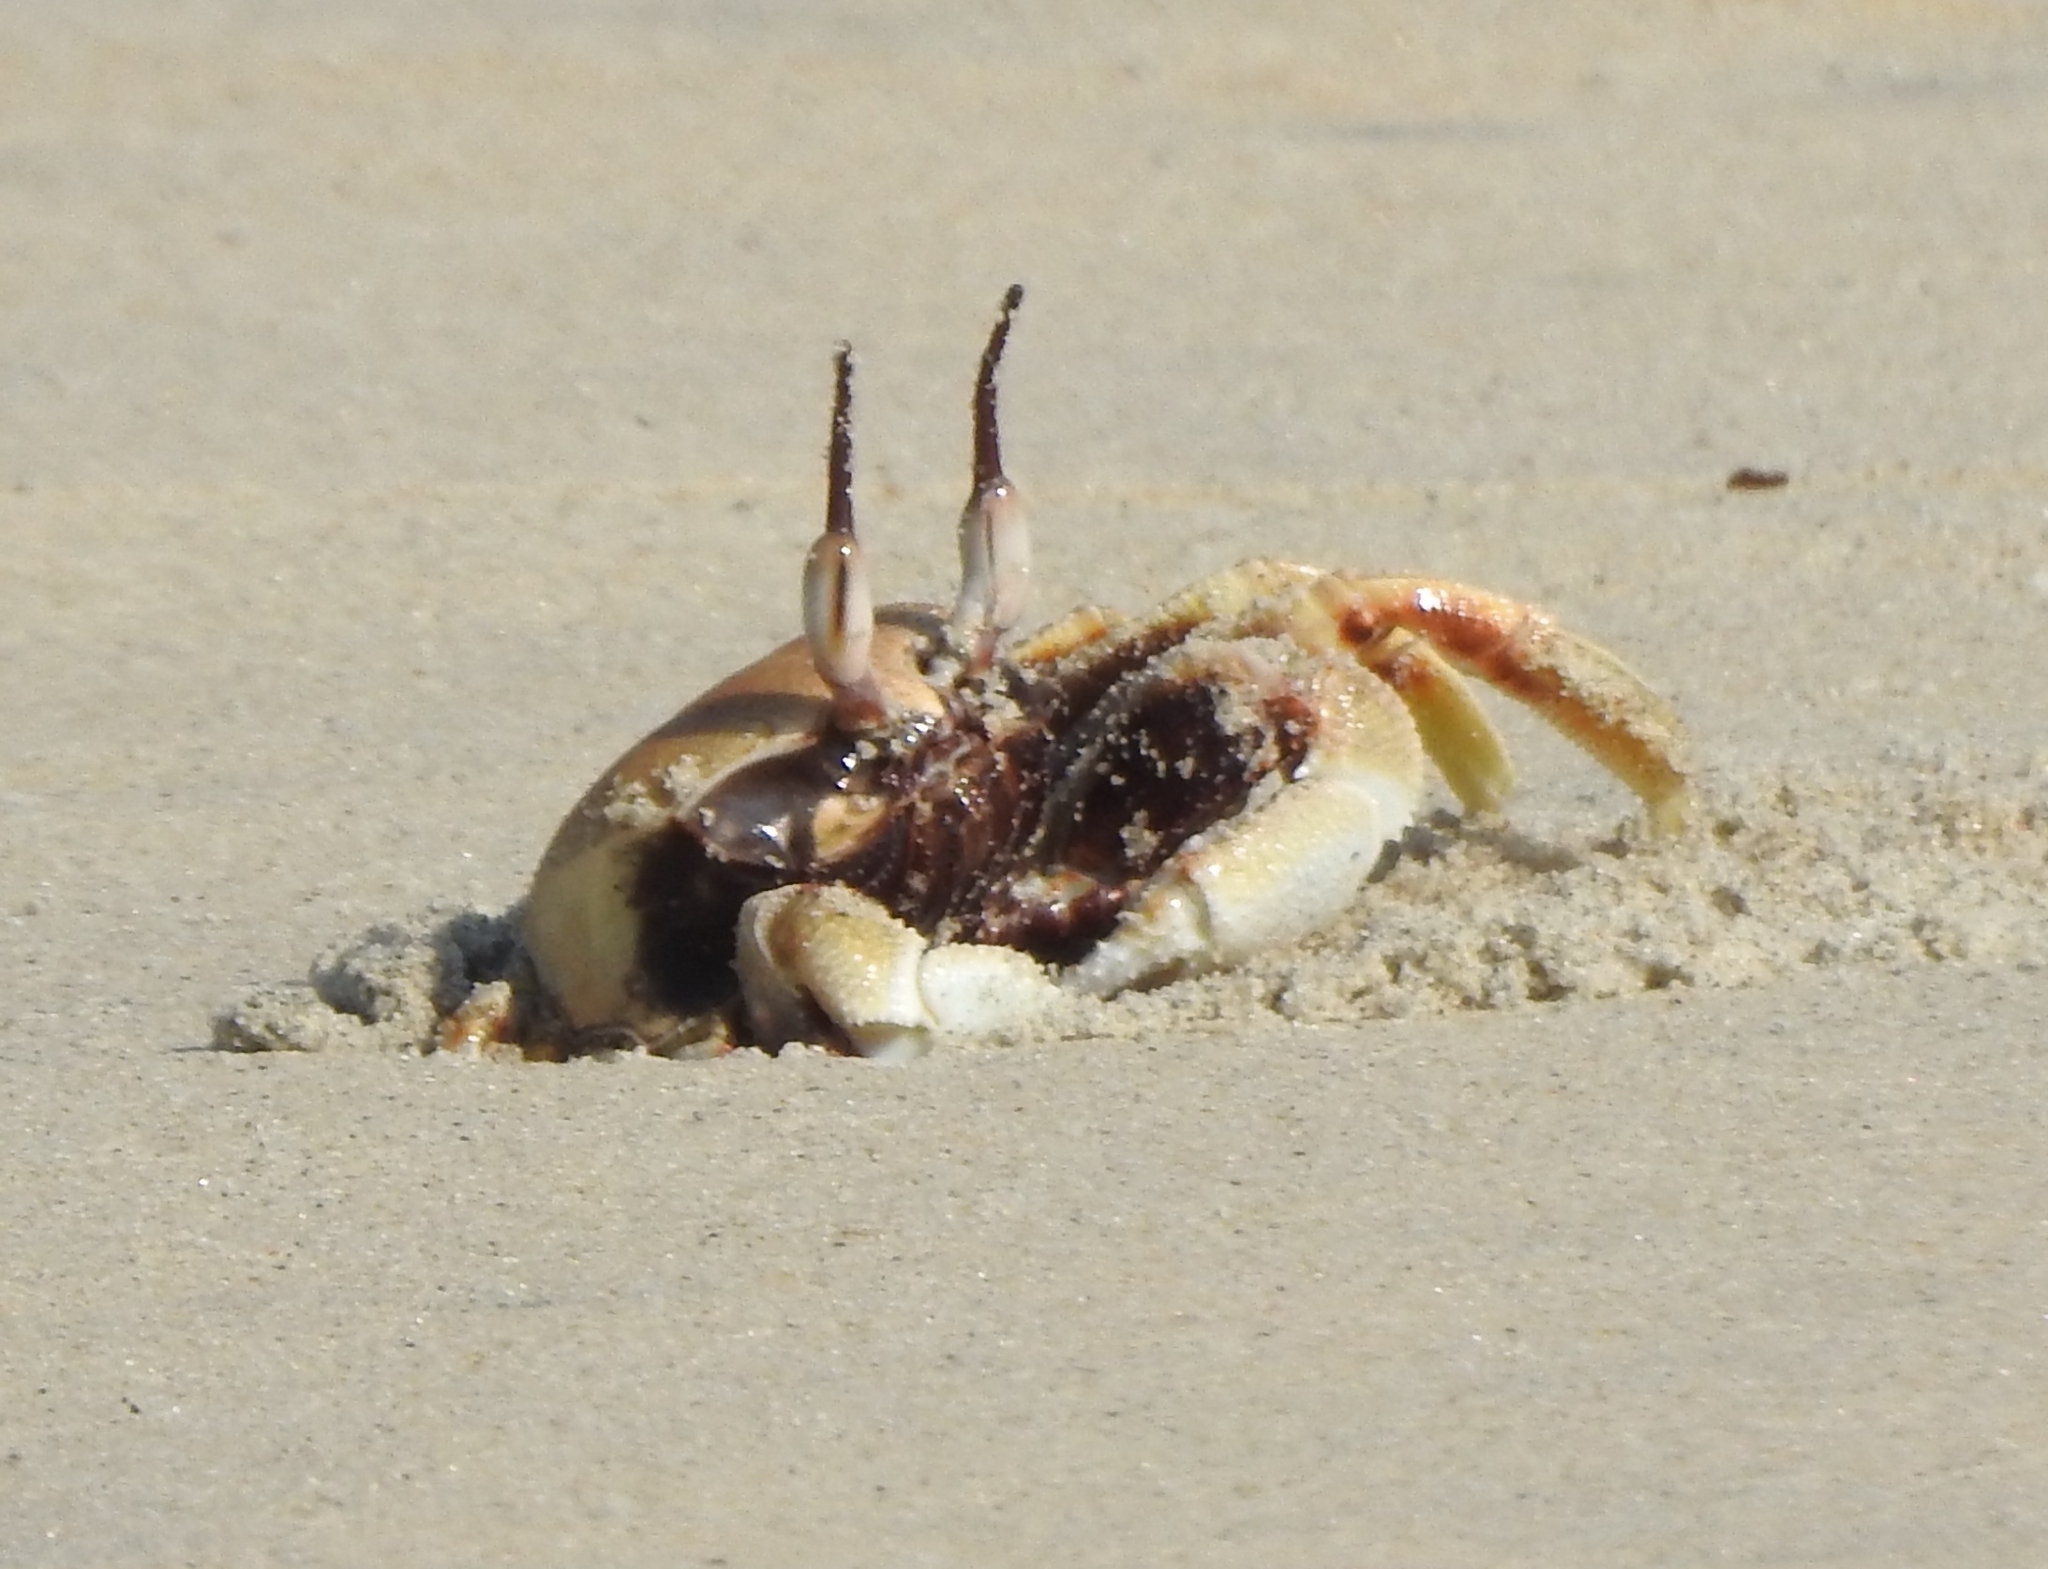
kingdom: Animalia
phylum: Arthropoda
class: Malacostraca
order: Decapoda
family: Ocypodidae
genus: Ocypode
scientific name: Ocypode ceratophthalmus
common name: Indo-pacific ghost crab
